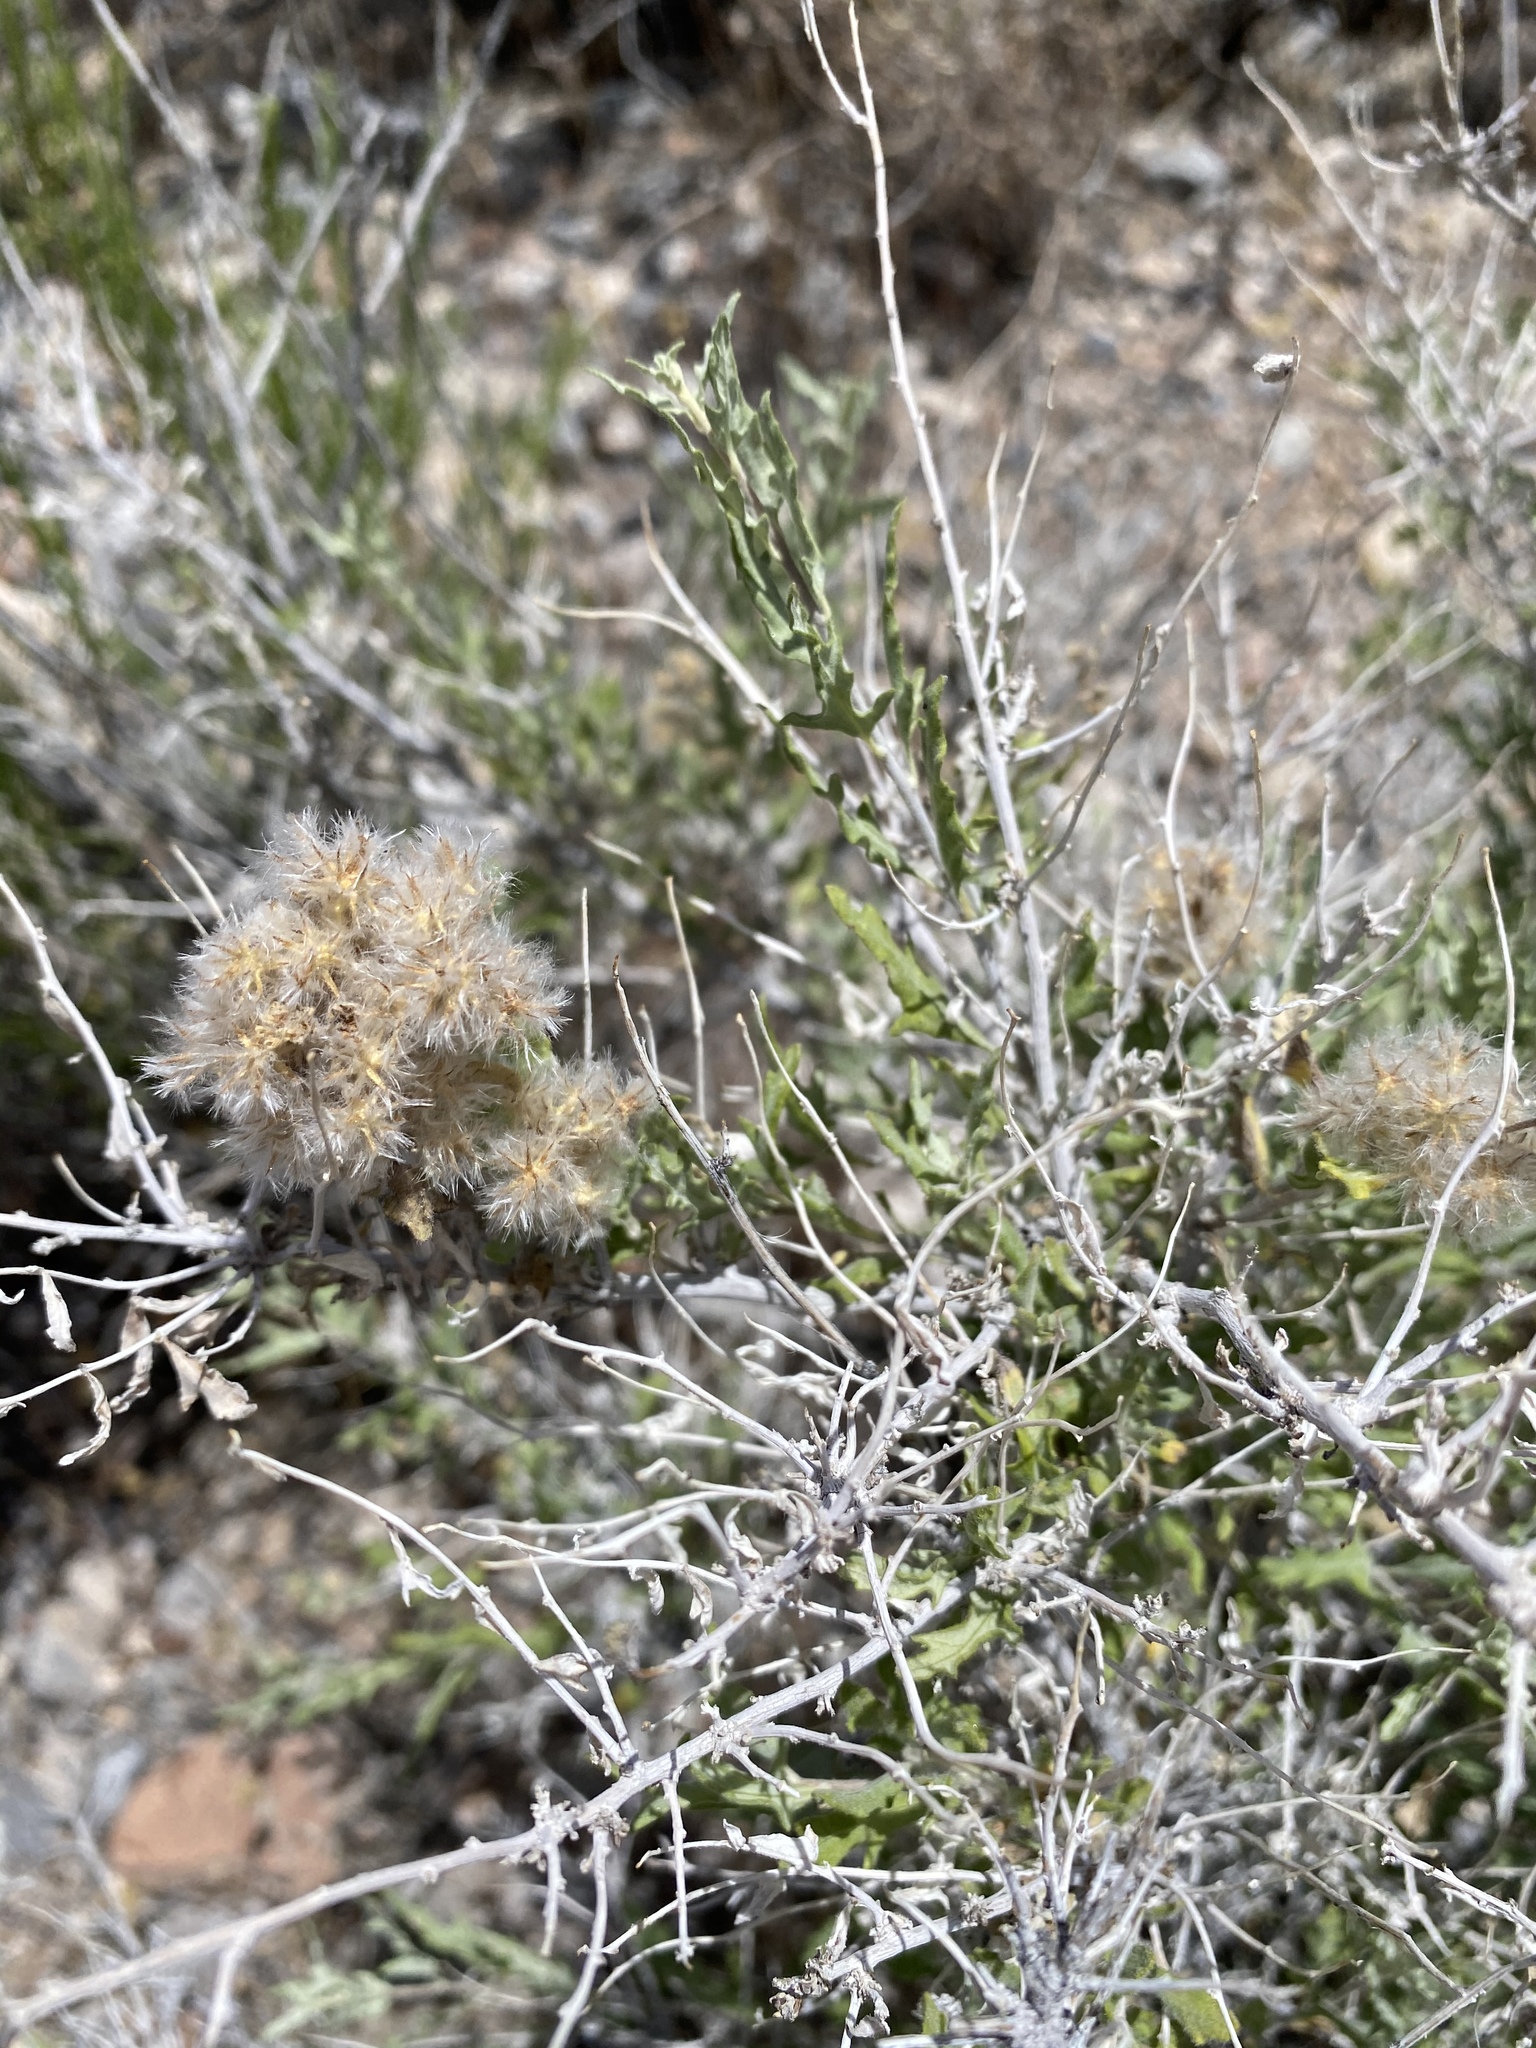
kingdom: Plantae
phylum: Tracheophyta
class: Magnoliopsida
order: Asterales
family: Asteraceae
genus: Ambrosia
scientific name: Ambrosia eriocentra
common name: Woolly bur-sage
